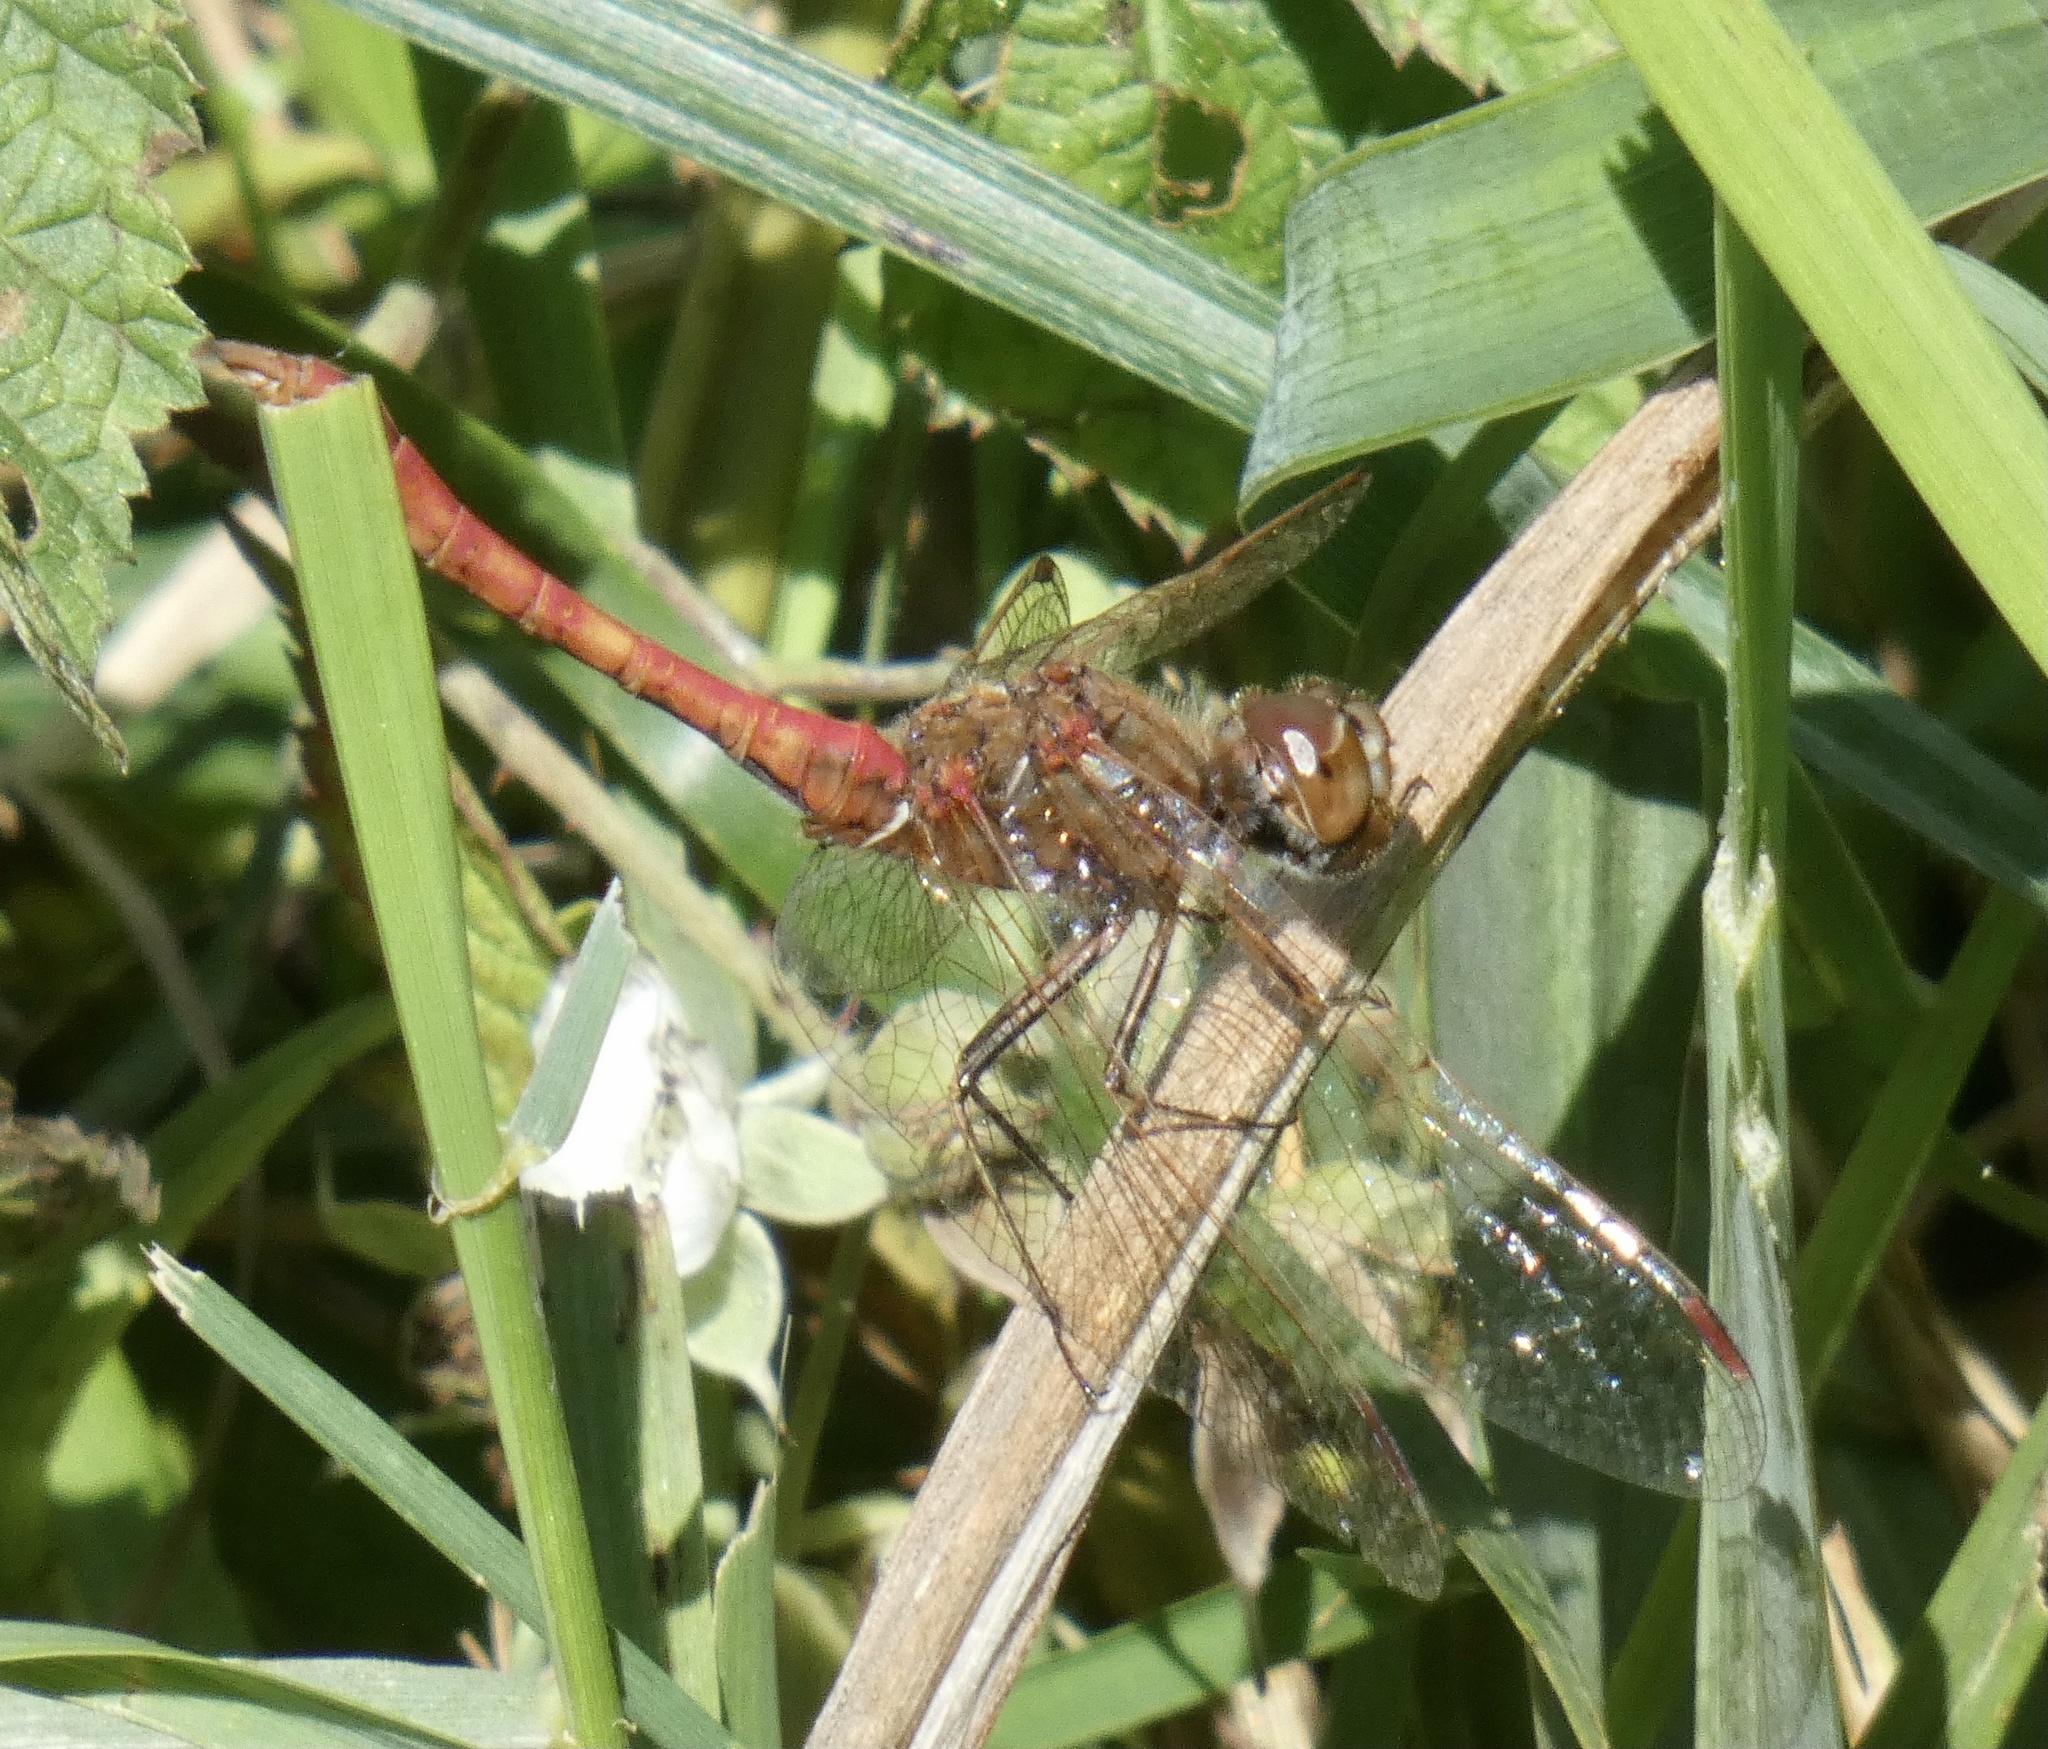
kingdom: Animalia
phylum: Arthropoda
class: Insecta
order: Odonata
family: Libellulidae
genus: Sympetrum
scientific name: Sympetrum vulgatum
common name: Vagrant darter
